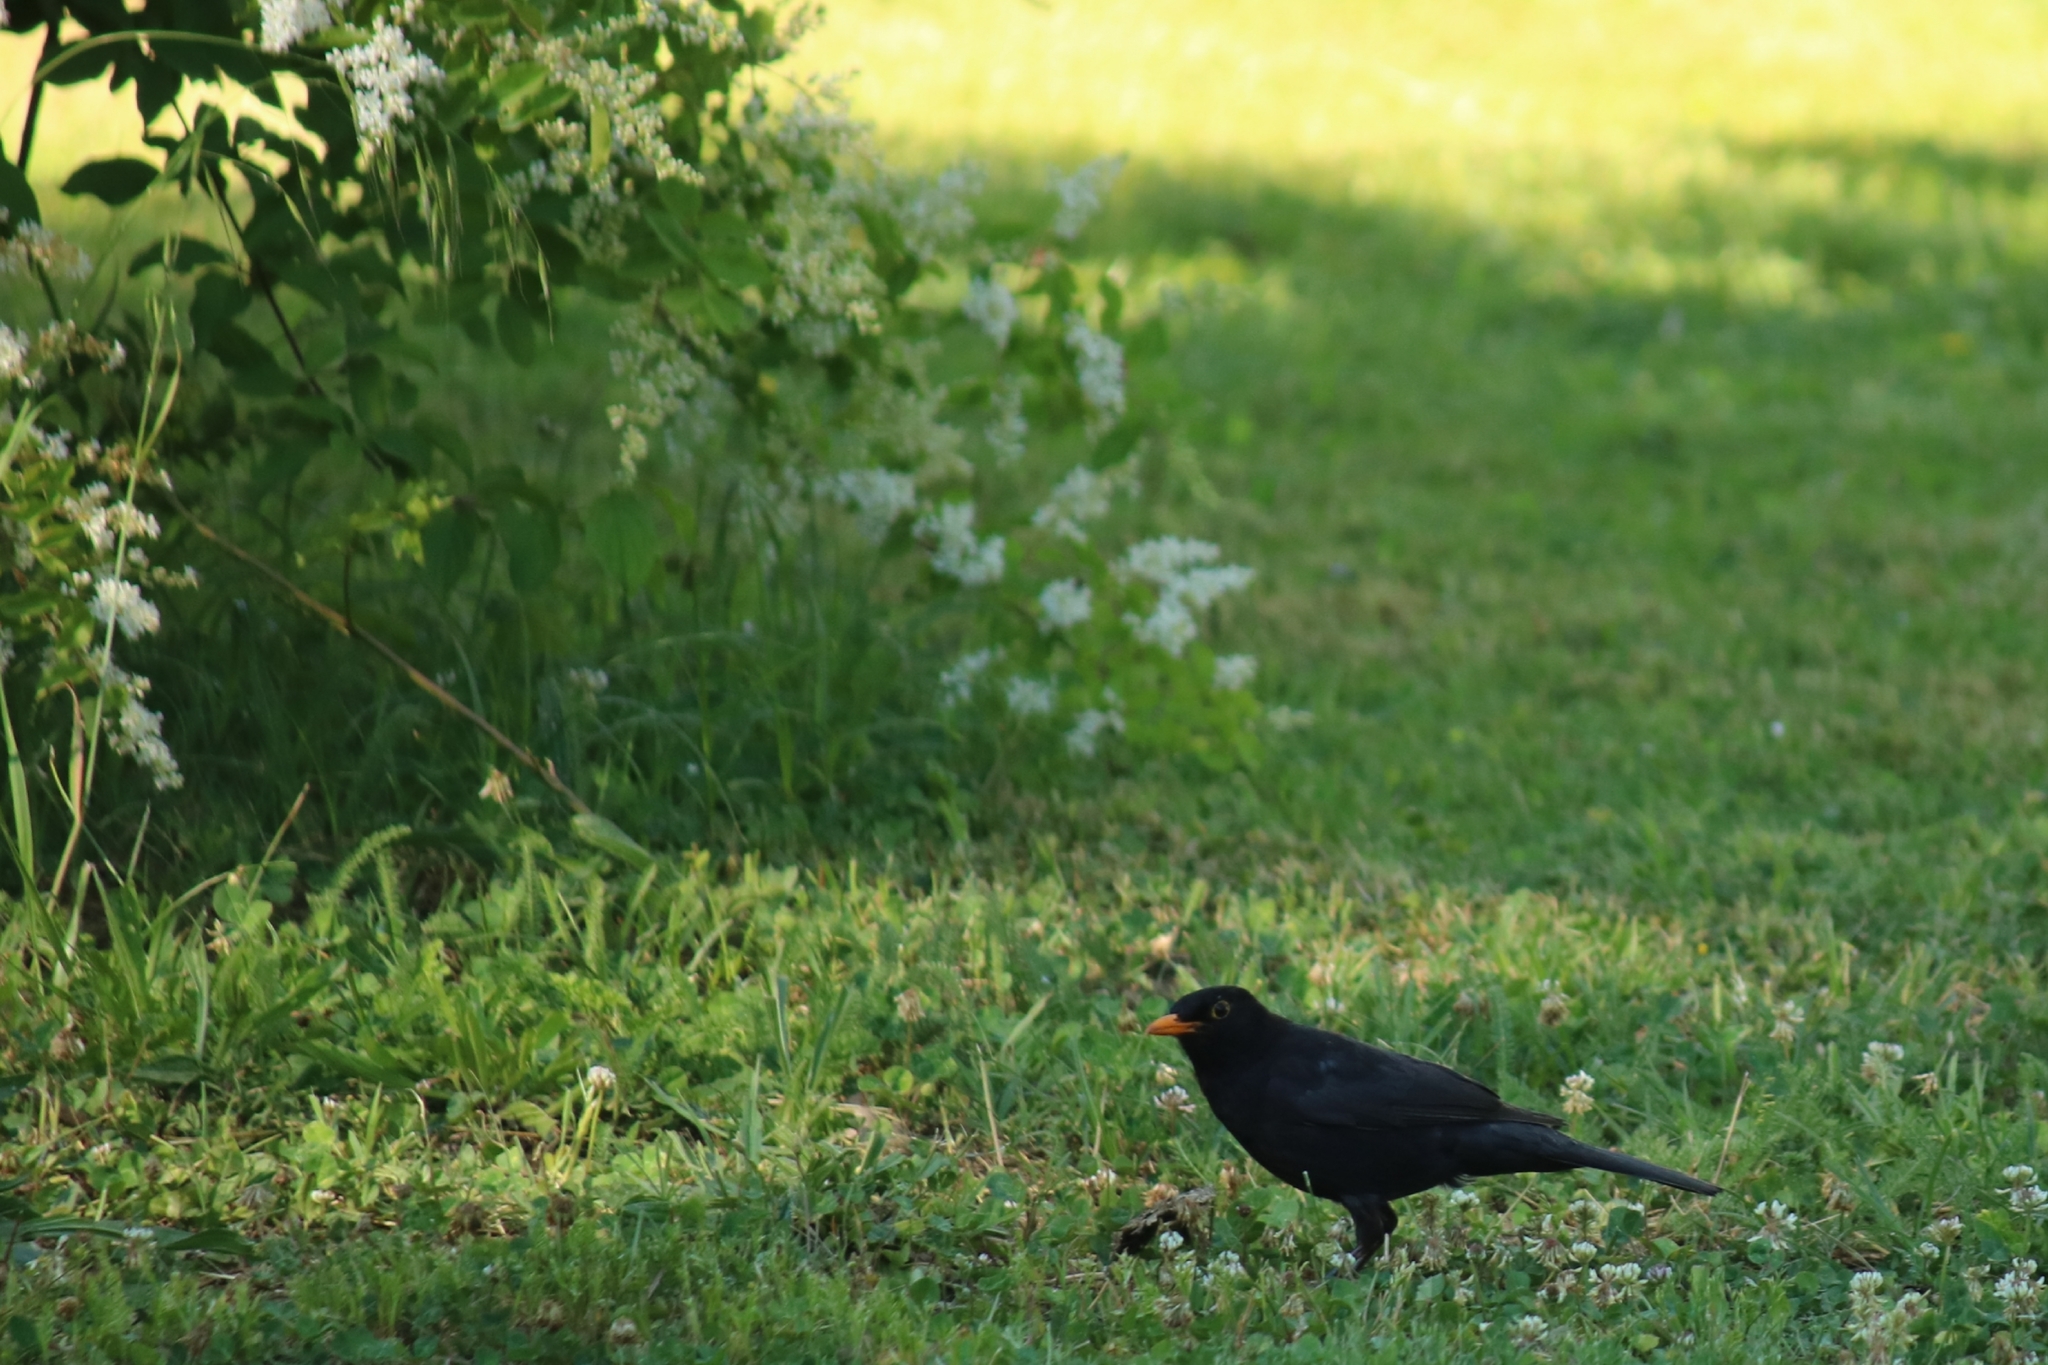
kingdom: Animalia
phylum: Chordata
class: Aves
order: Passeriformes
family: Turdidae
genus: Turdus
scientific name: Turdus merula
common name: Common blackbird
